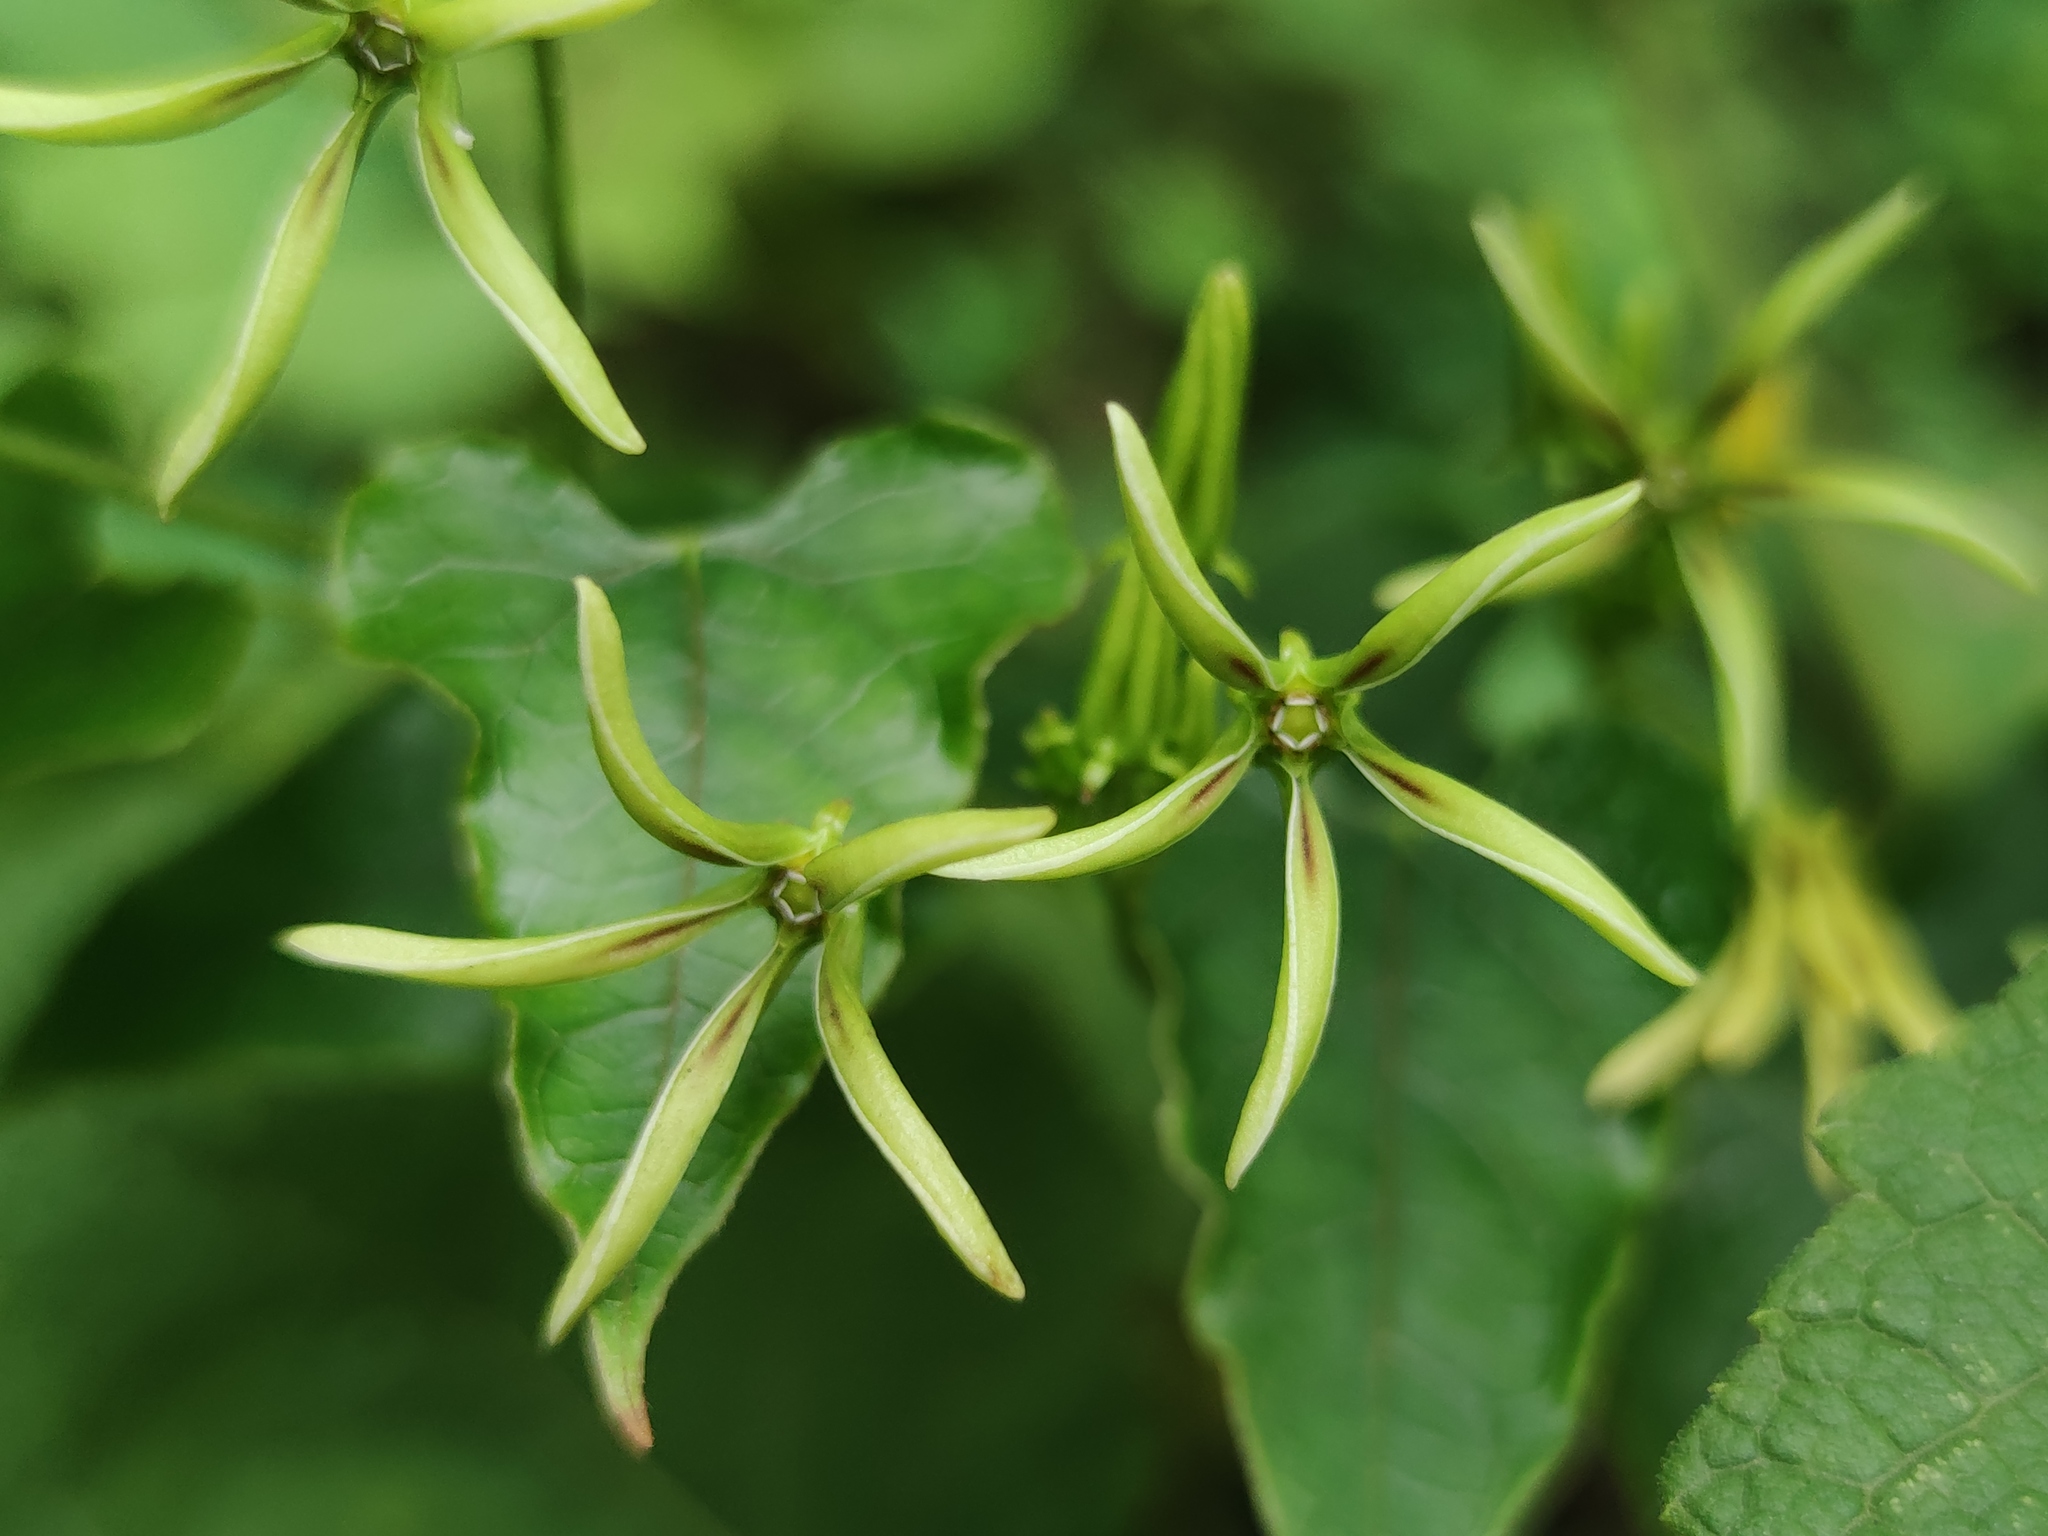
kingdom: Plantae
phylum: Tracheophyta
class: Magnoliopsida
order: Gentianales
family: Apocynaceae
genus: Gonolobus
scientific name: Gonolobus calcaratus
